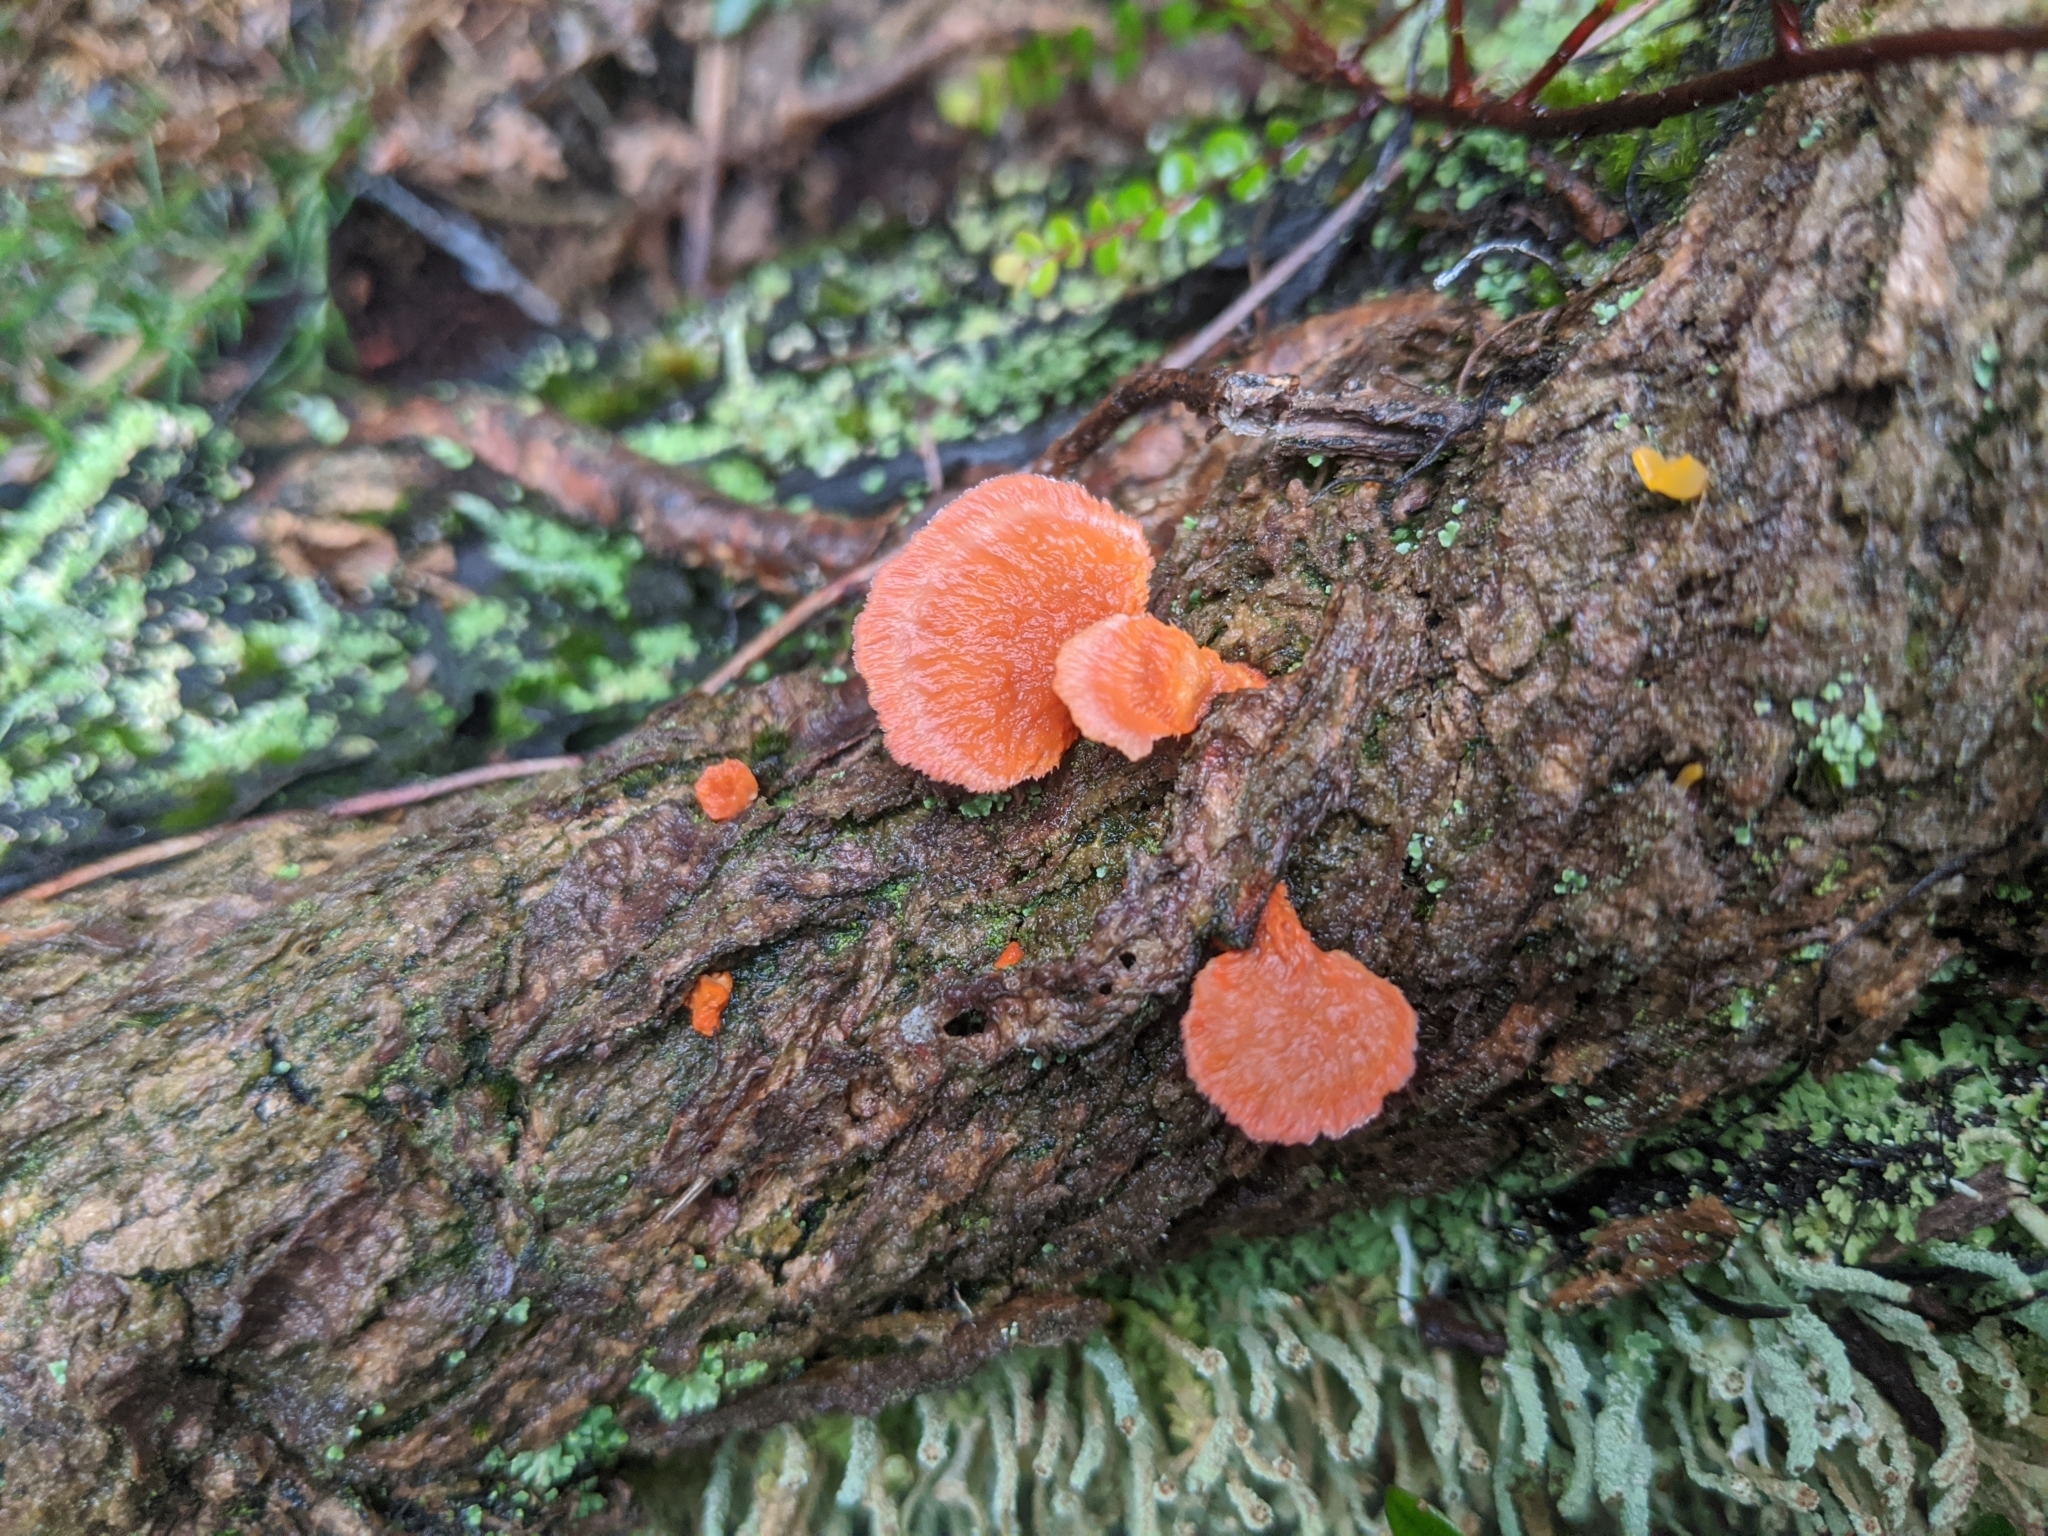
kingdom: Fungi
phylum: Basidiomycota
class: Agaricomycetes
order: Polyporales
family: Polyporaceae
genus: Trametes
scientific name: Trametes coccinea
